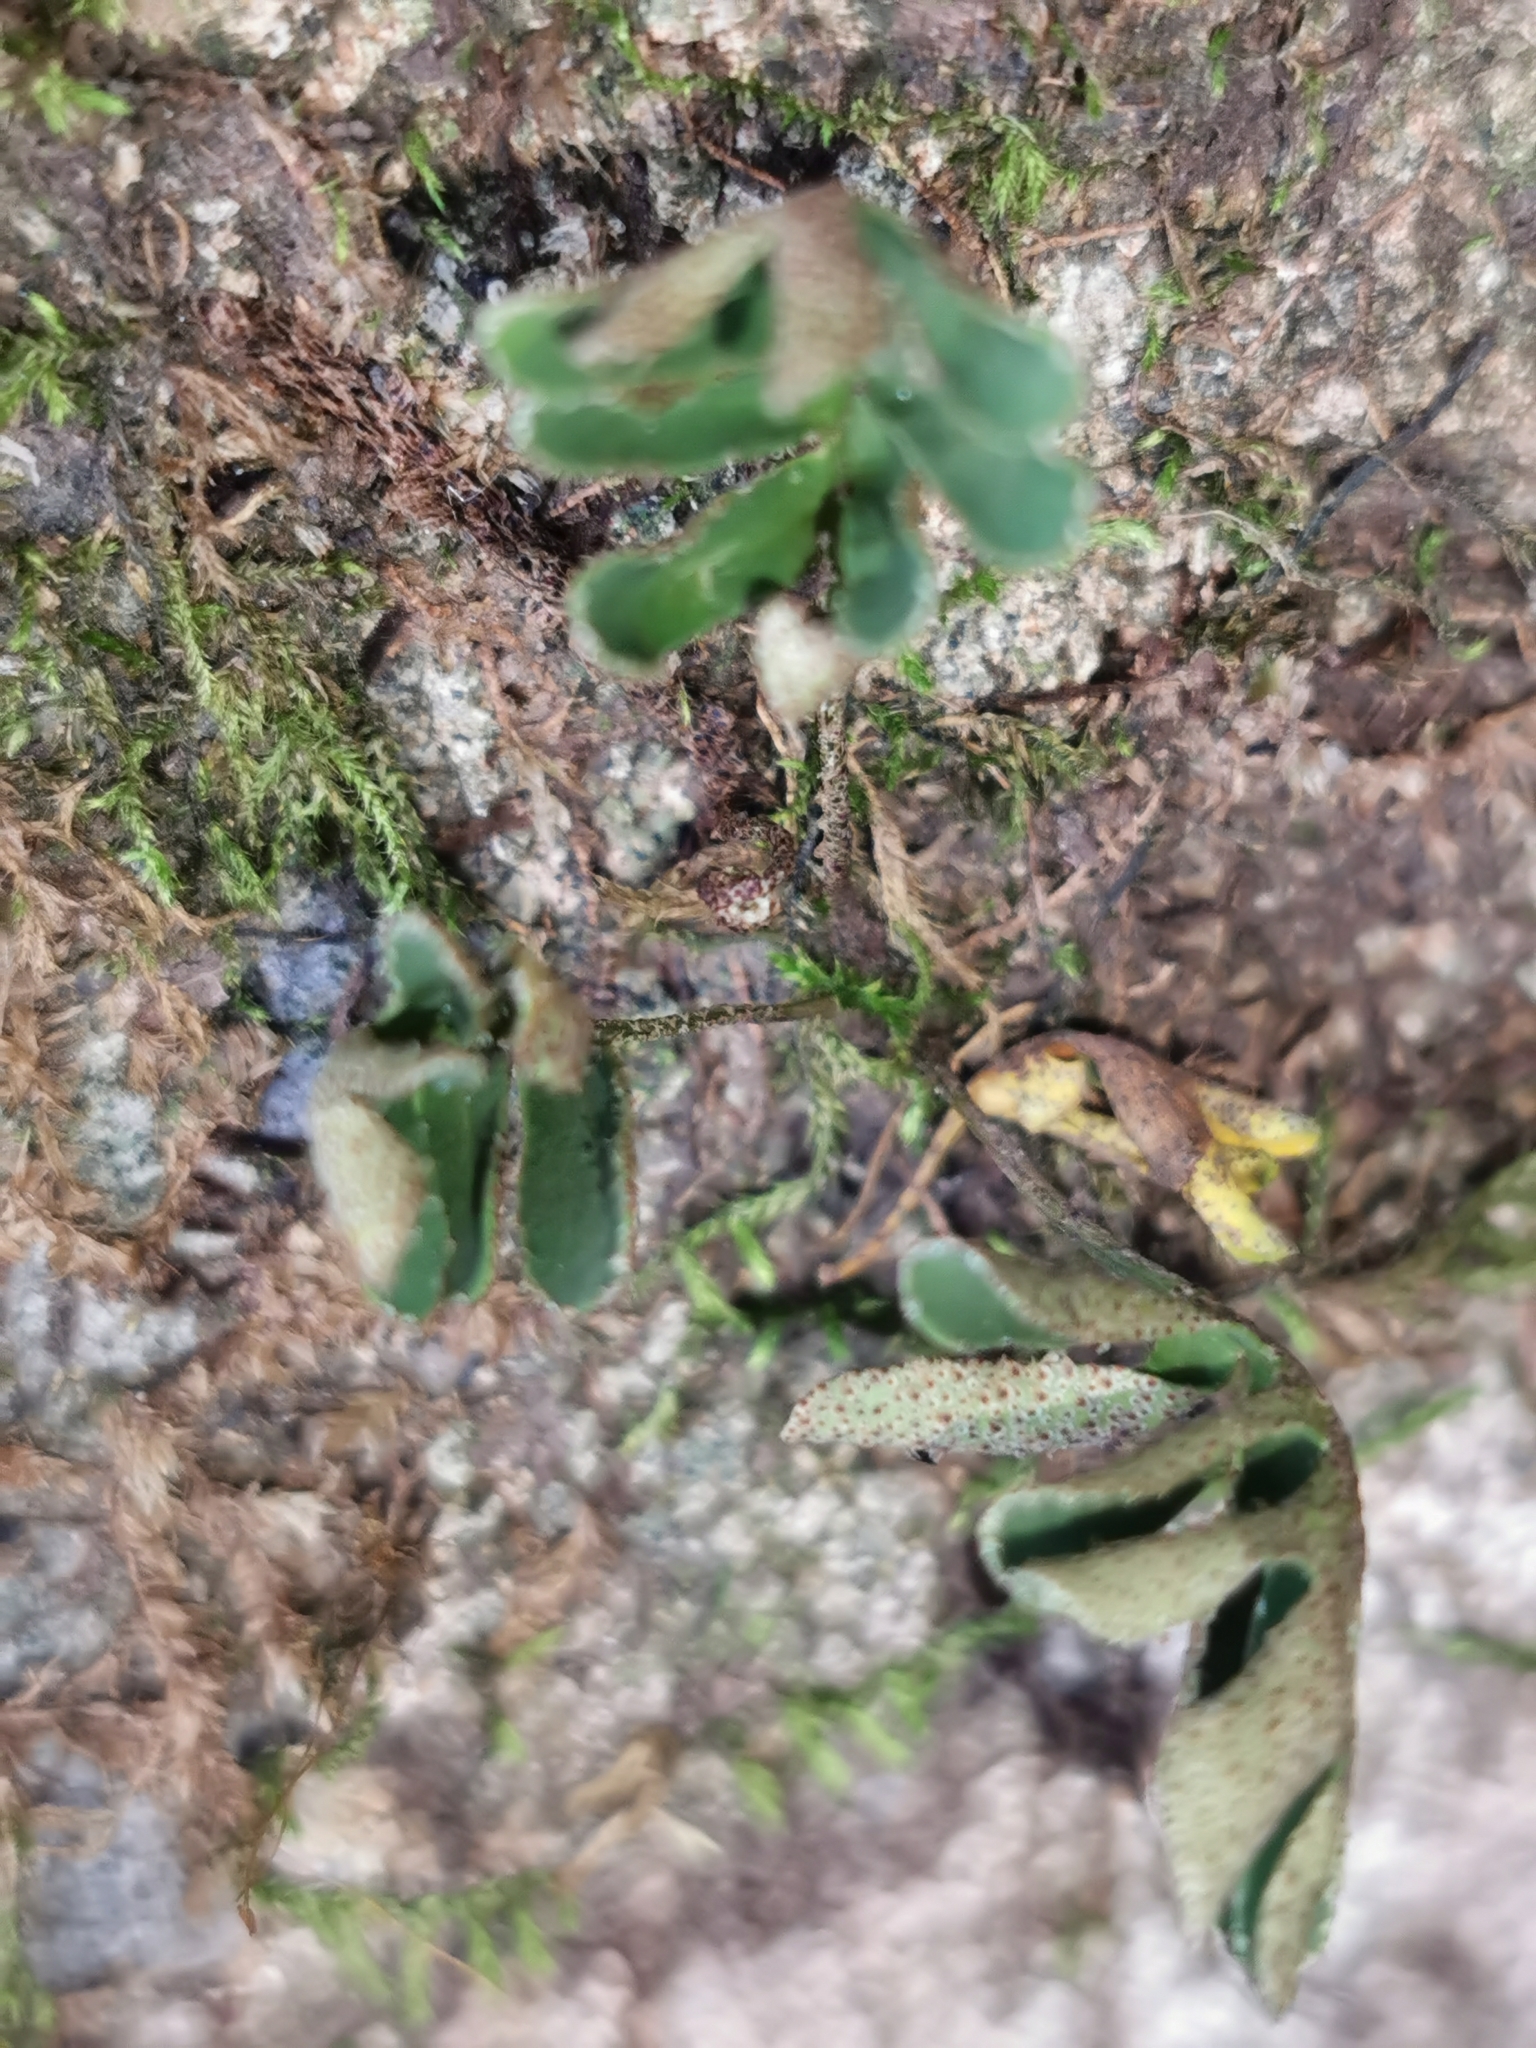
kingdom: Plantae
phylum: Tracheophyta
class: Polypodiopsida
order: Polypodiales
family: Polypodiaceae
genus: Pleopeltis
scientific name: Pleopeltis michauxiana
